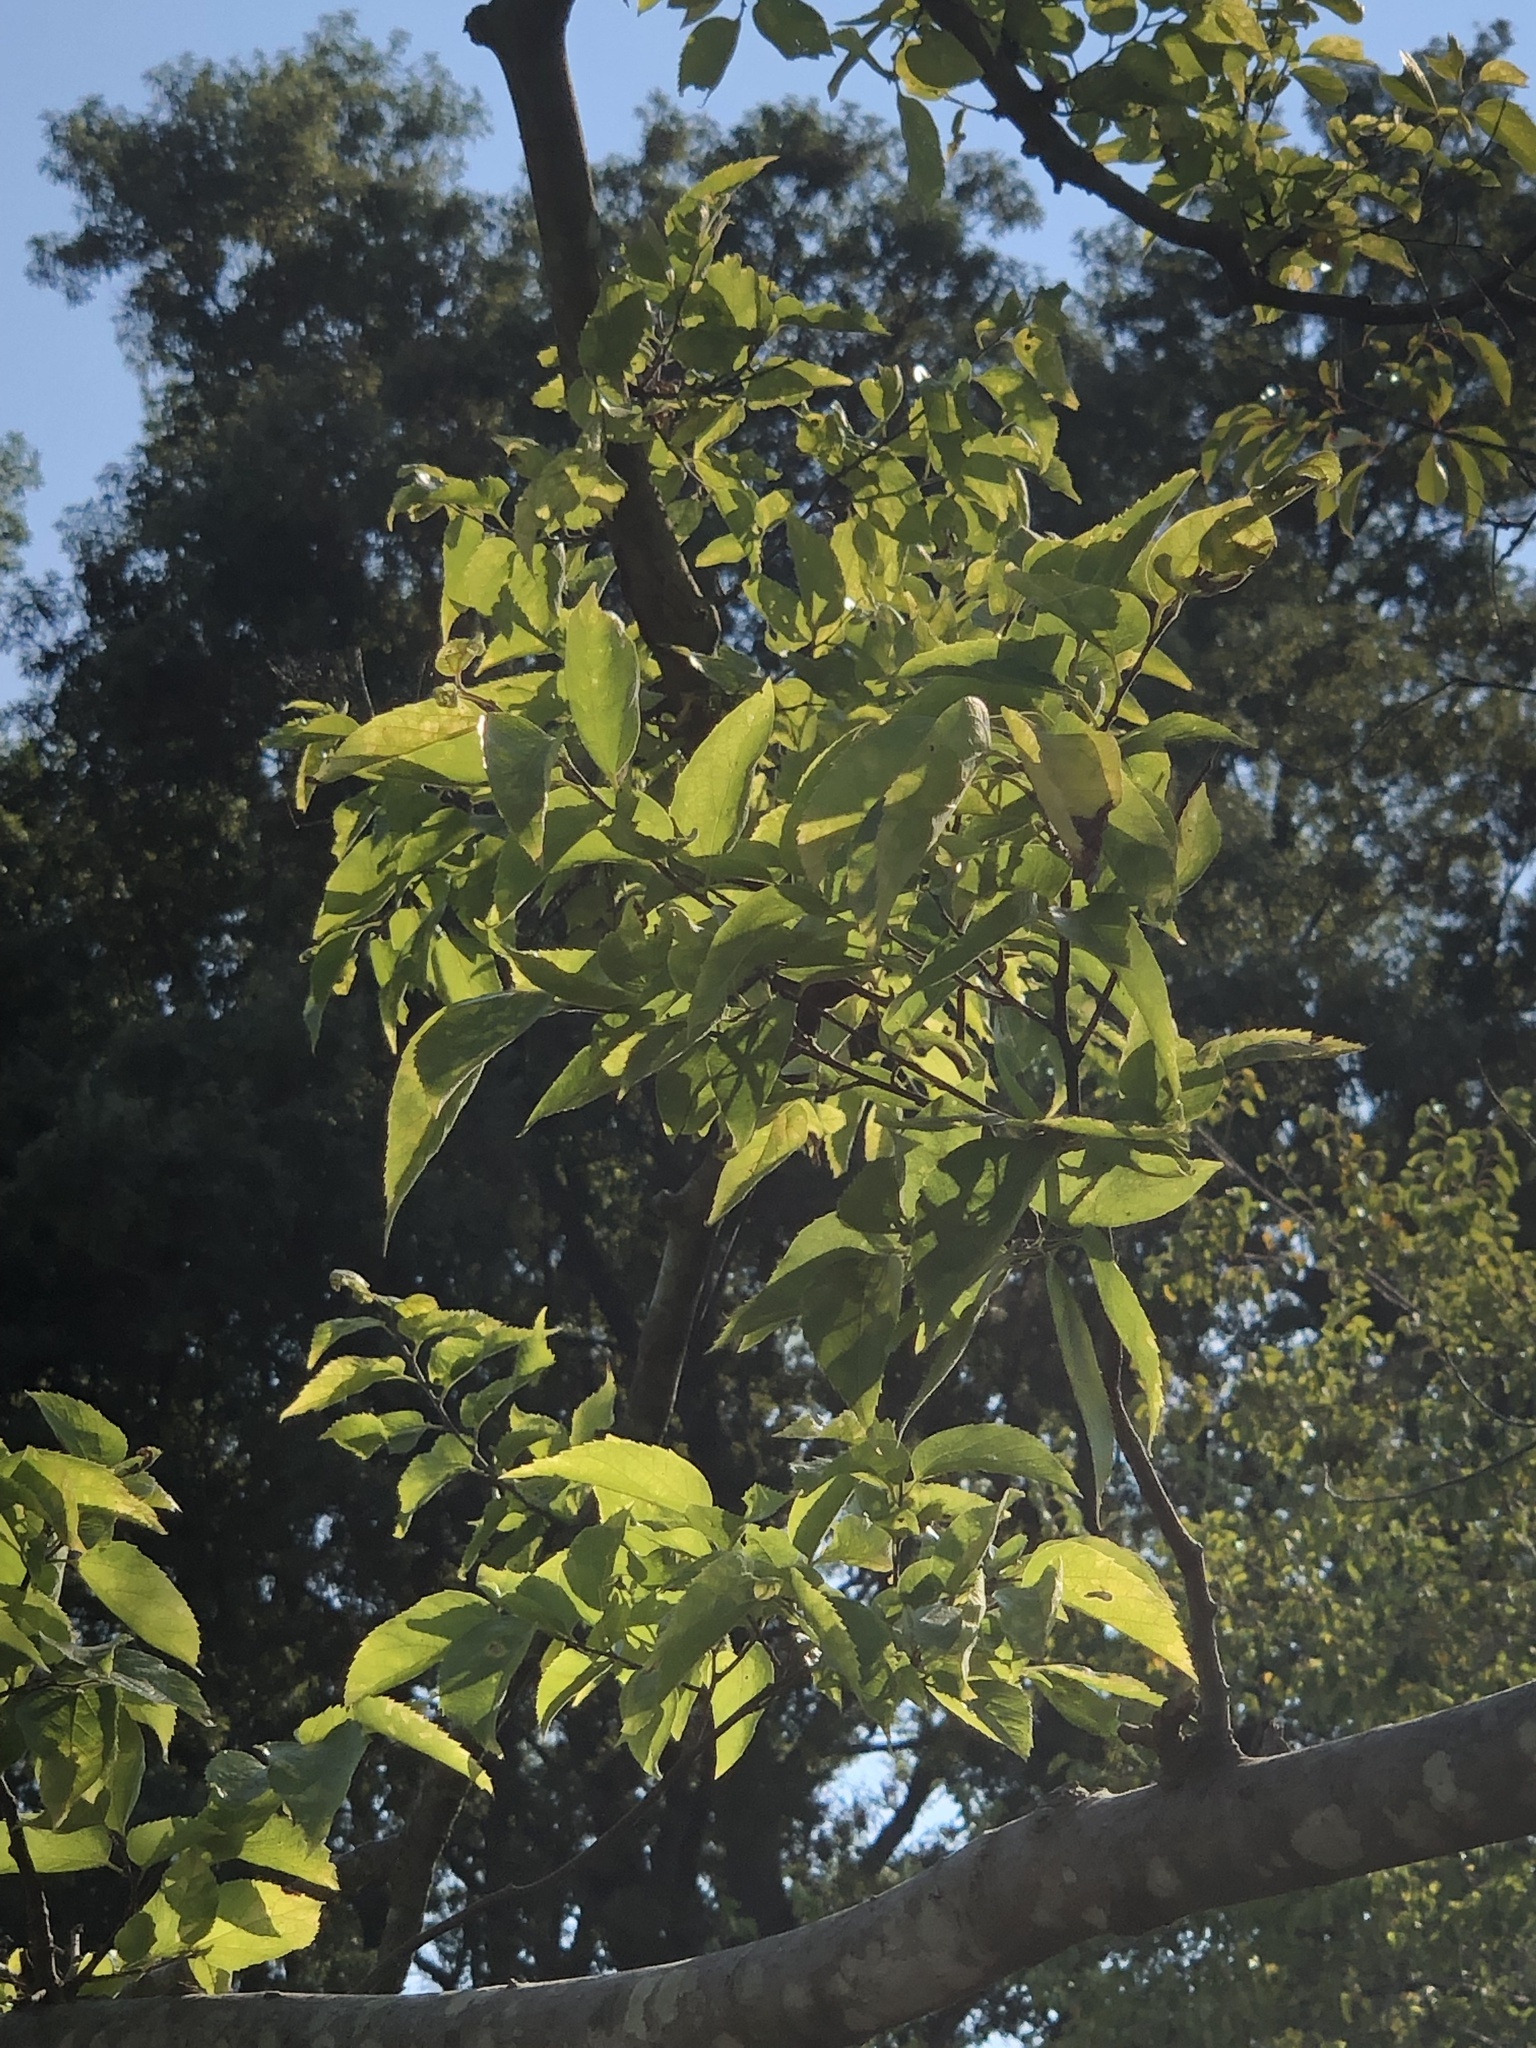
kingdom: Plantae
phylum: Tracheophyta
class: Magnoliopsida
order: Rosales
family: Cannabaceae
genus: Celtis
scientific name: Celtis occidentalis
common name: Common hackberry
